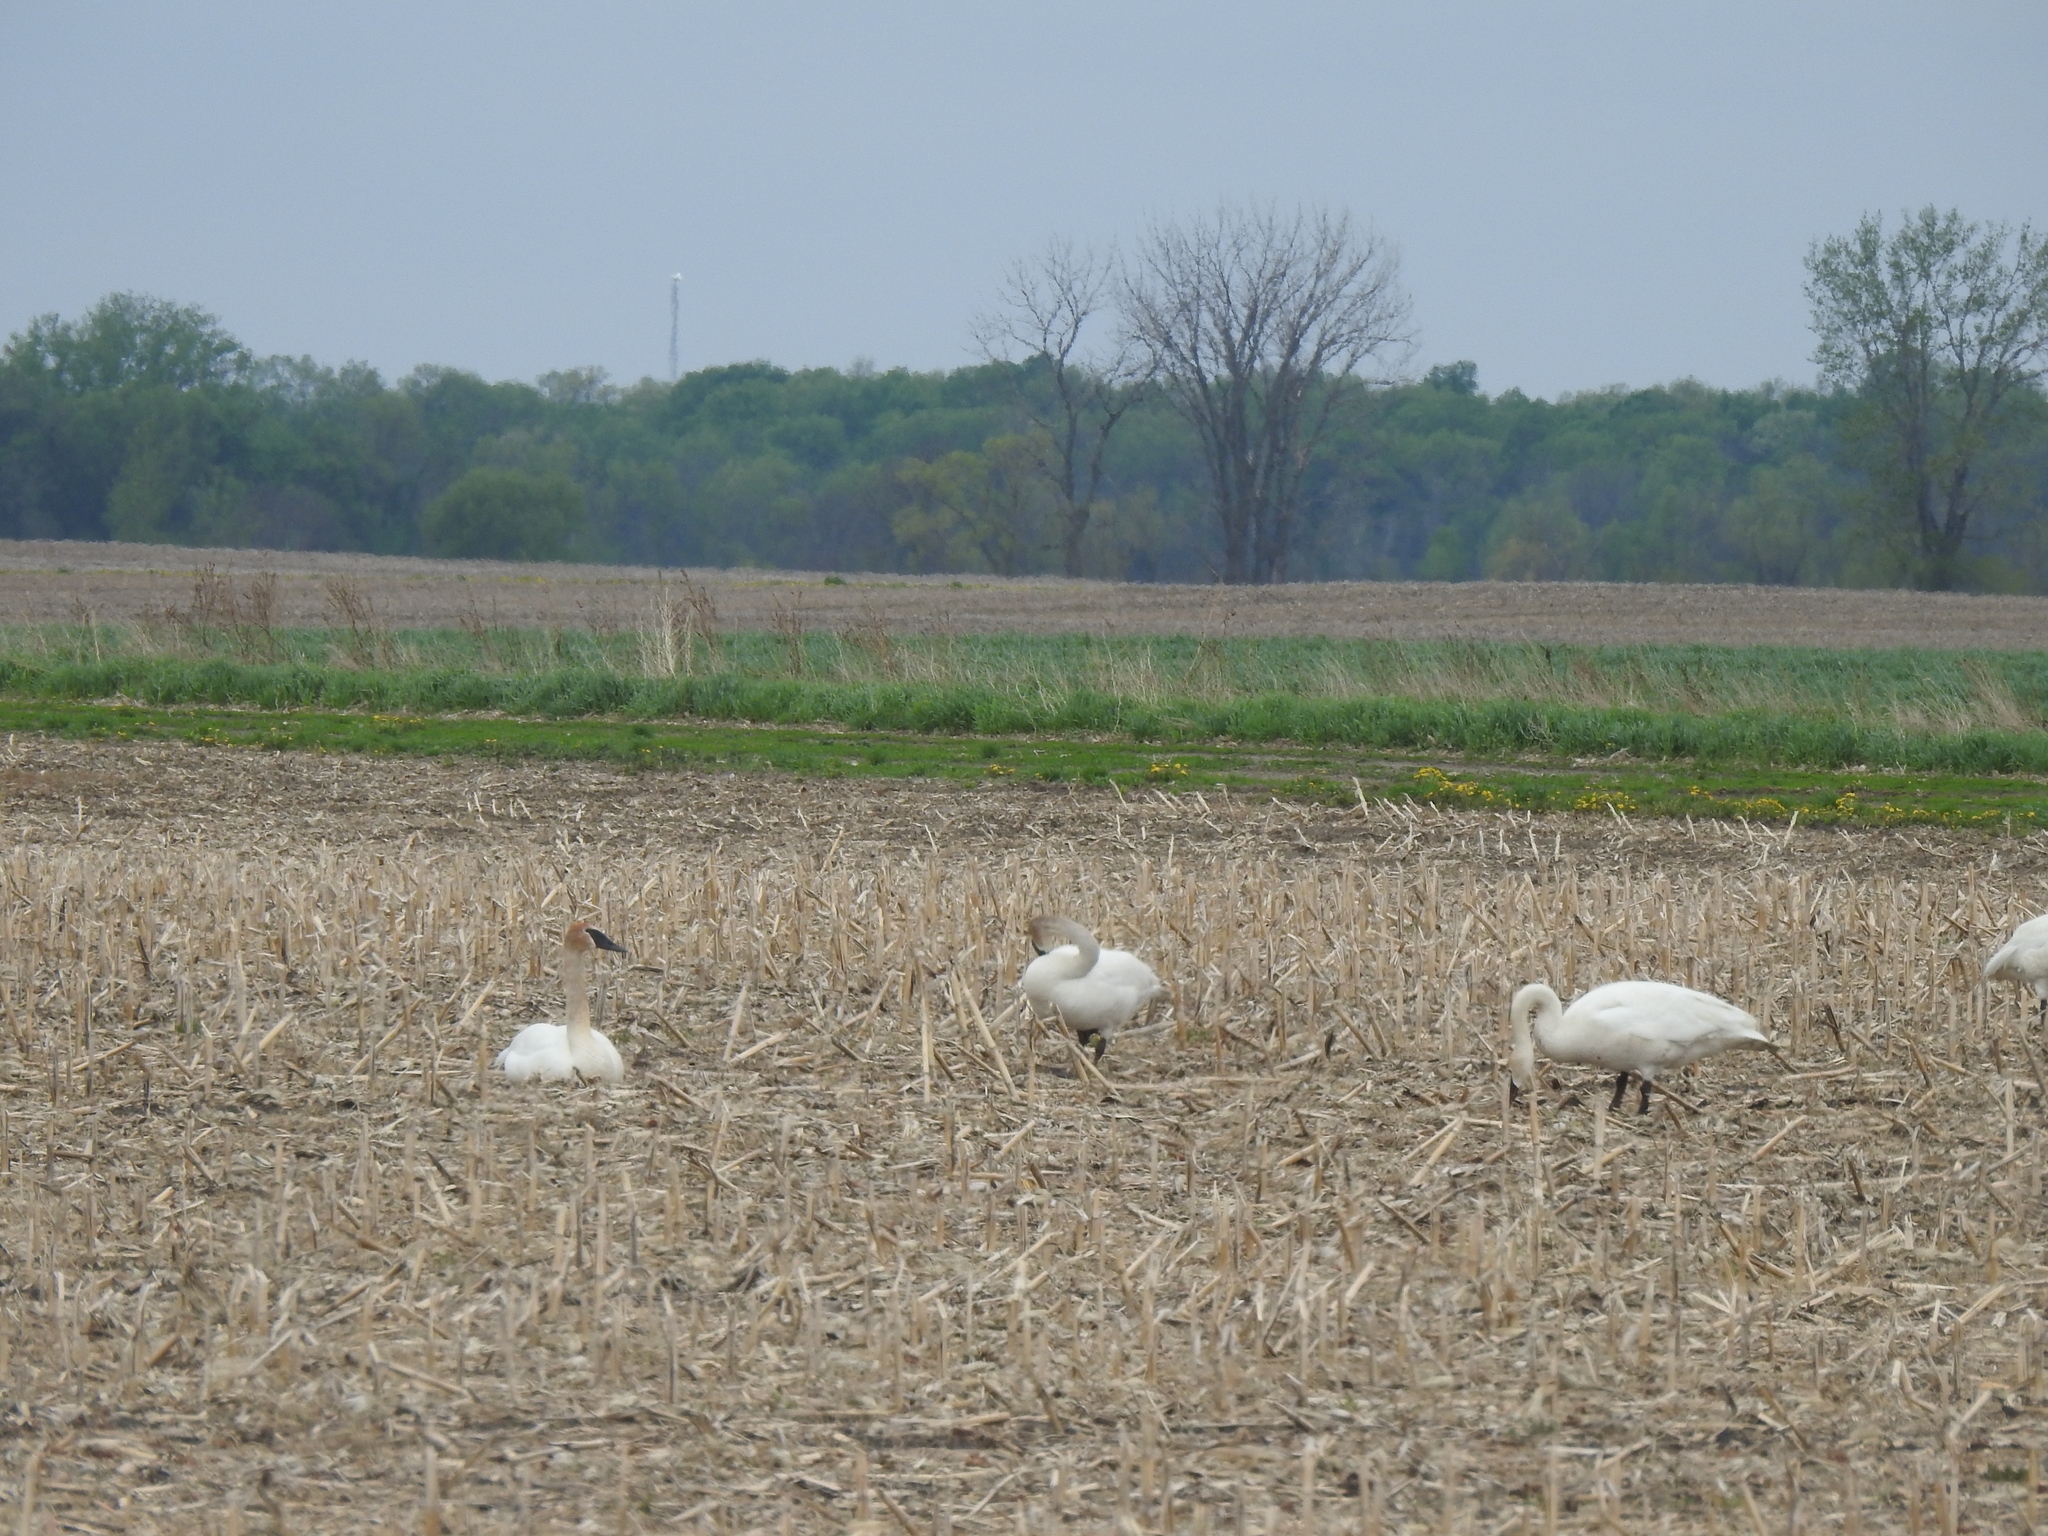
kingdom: Animalia
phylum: Chordata
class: Aves
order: Anseriformes
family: Anatidae
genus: Cygnus
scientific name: Cygnus buccinator
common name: Trumpeter swan
